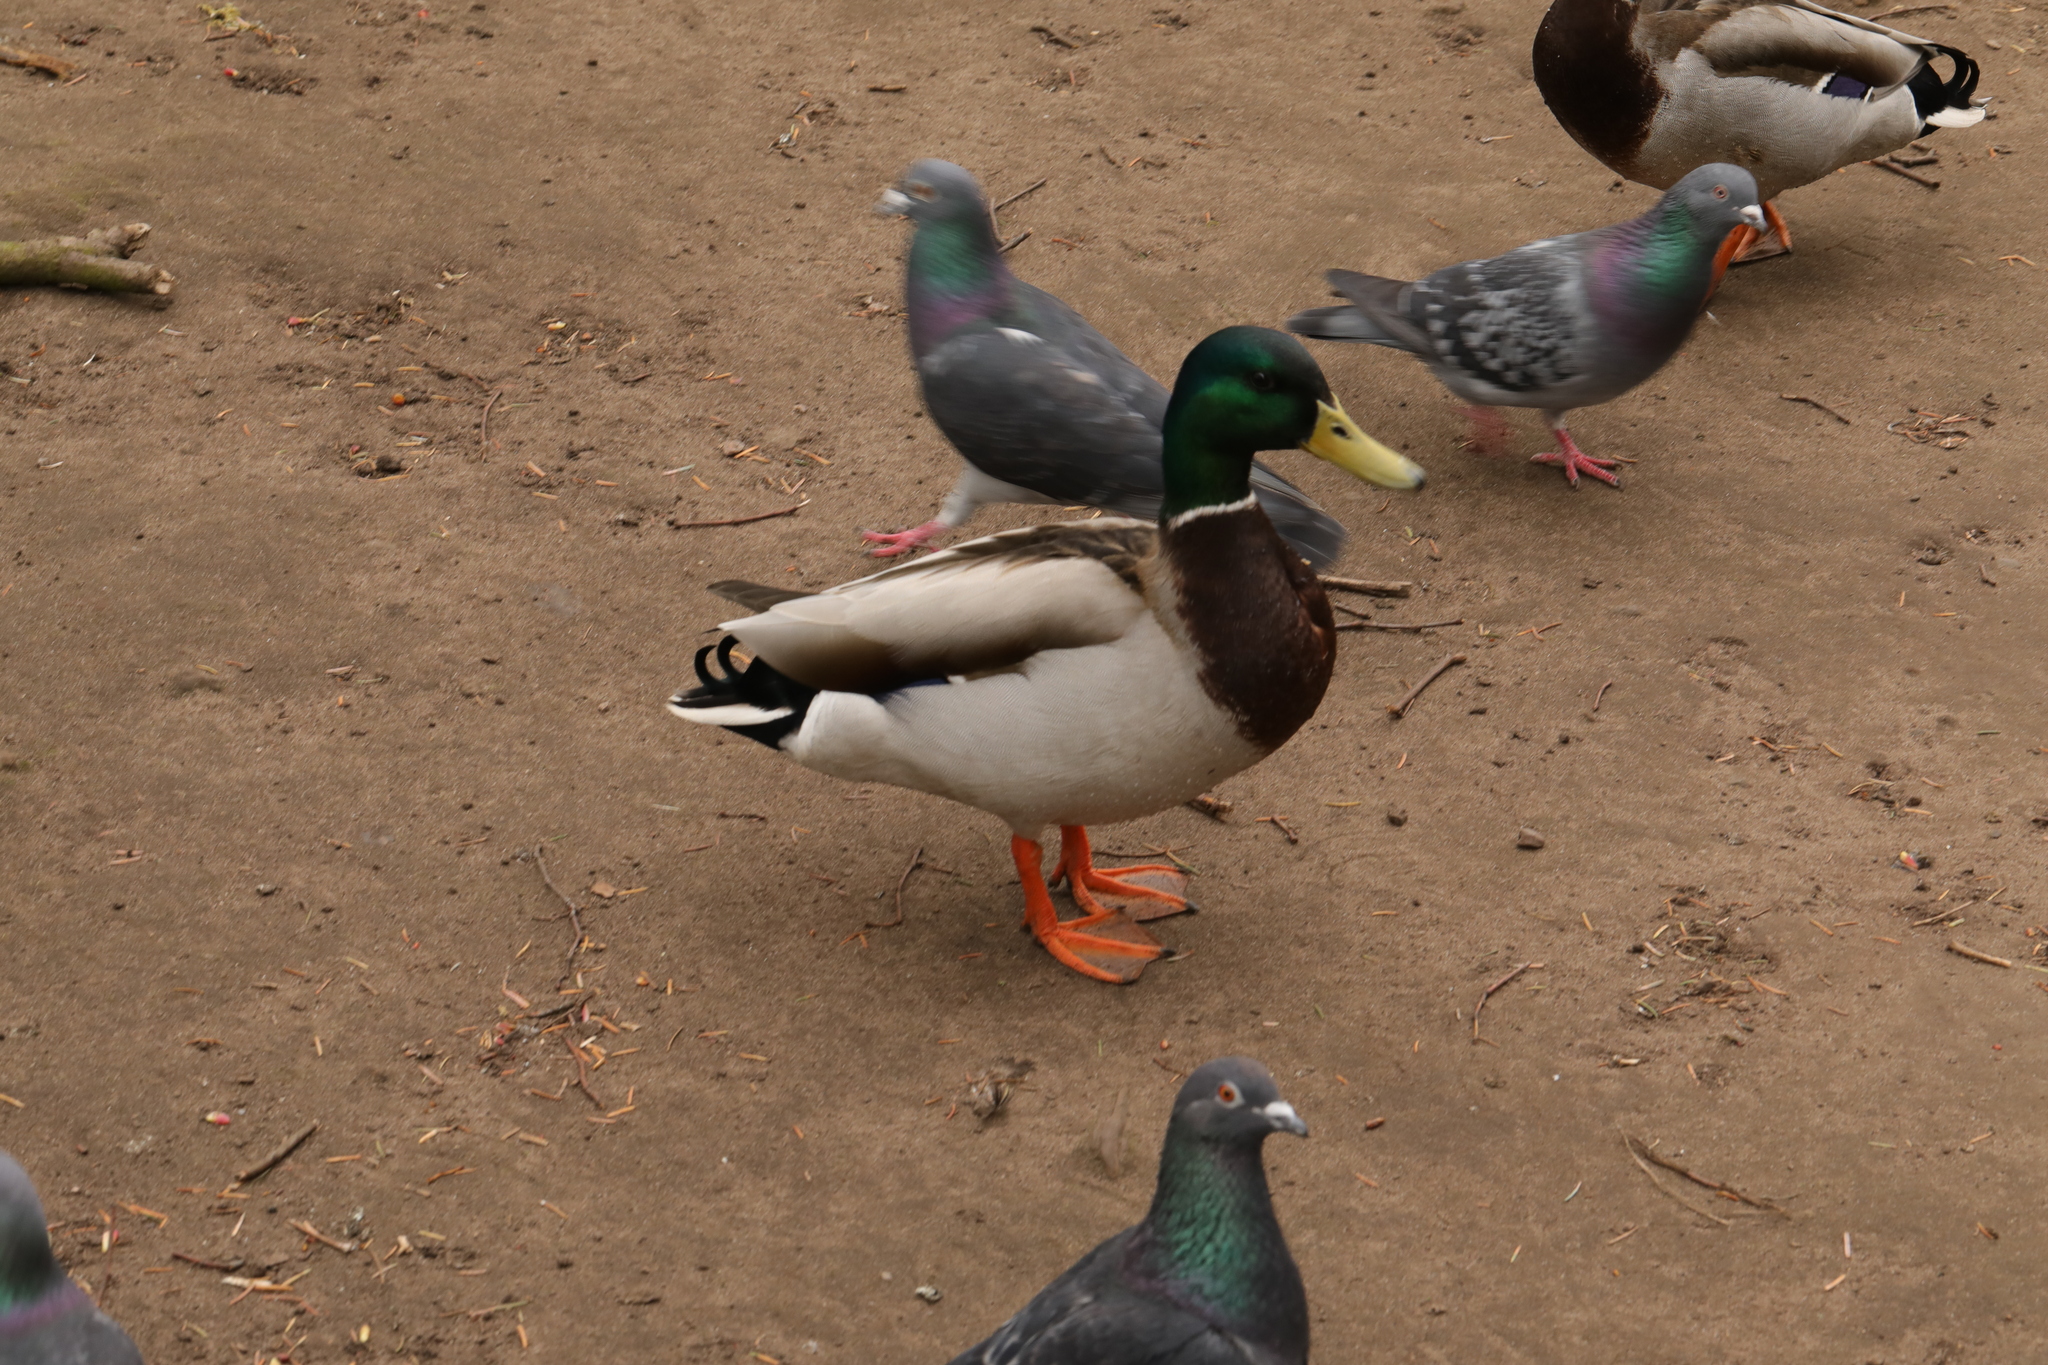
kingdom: Animalia
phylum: Chordata
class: Aves
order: Anseriformes
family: Anatidae
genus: Anas
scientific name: Anas platyrhynchos
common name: Mallard
